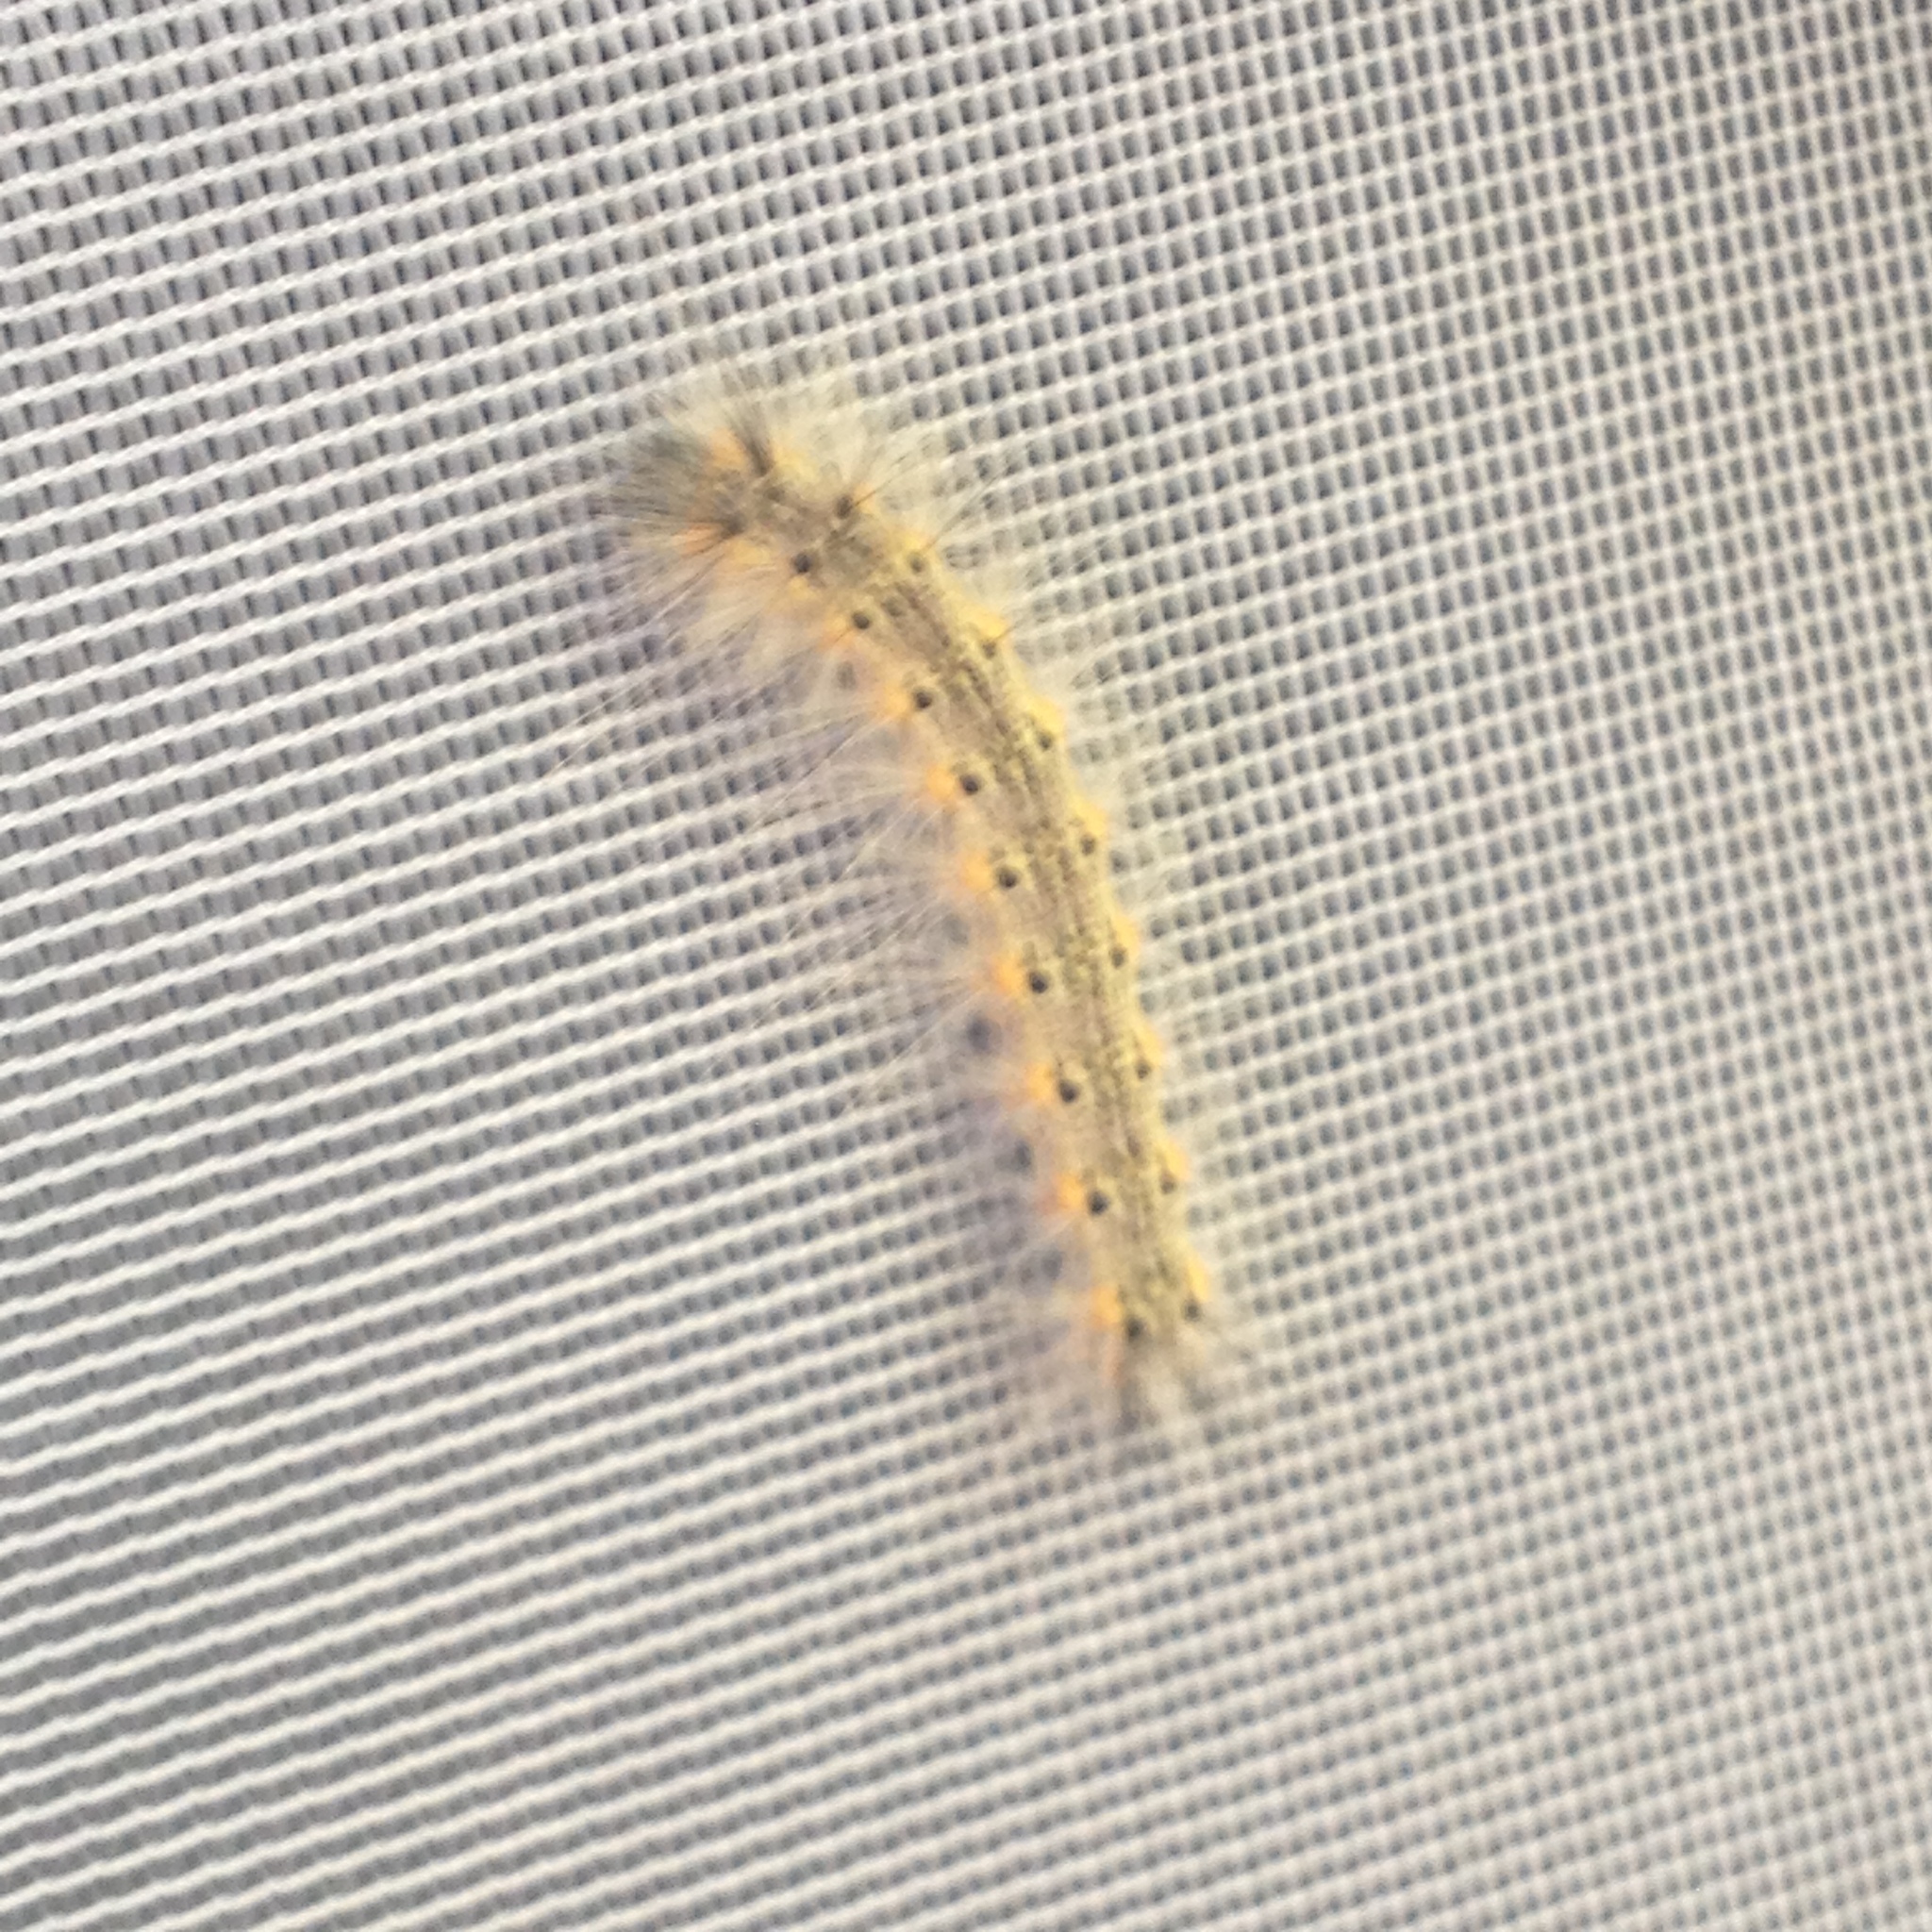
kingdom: Animalia
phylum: Arthropoda
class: Insecta
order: Lepidoptera
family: Erebidae
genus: Hyphantria
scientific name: Hyphantria cunea
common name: American white moth
